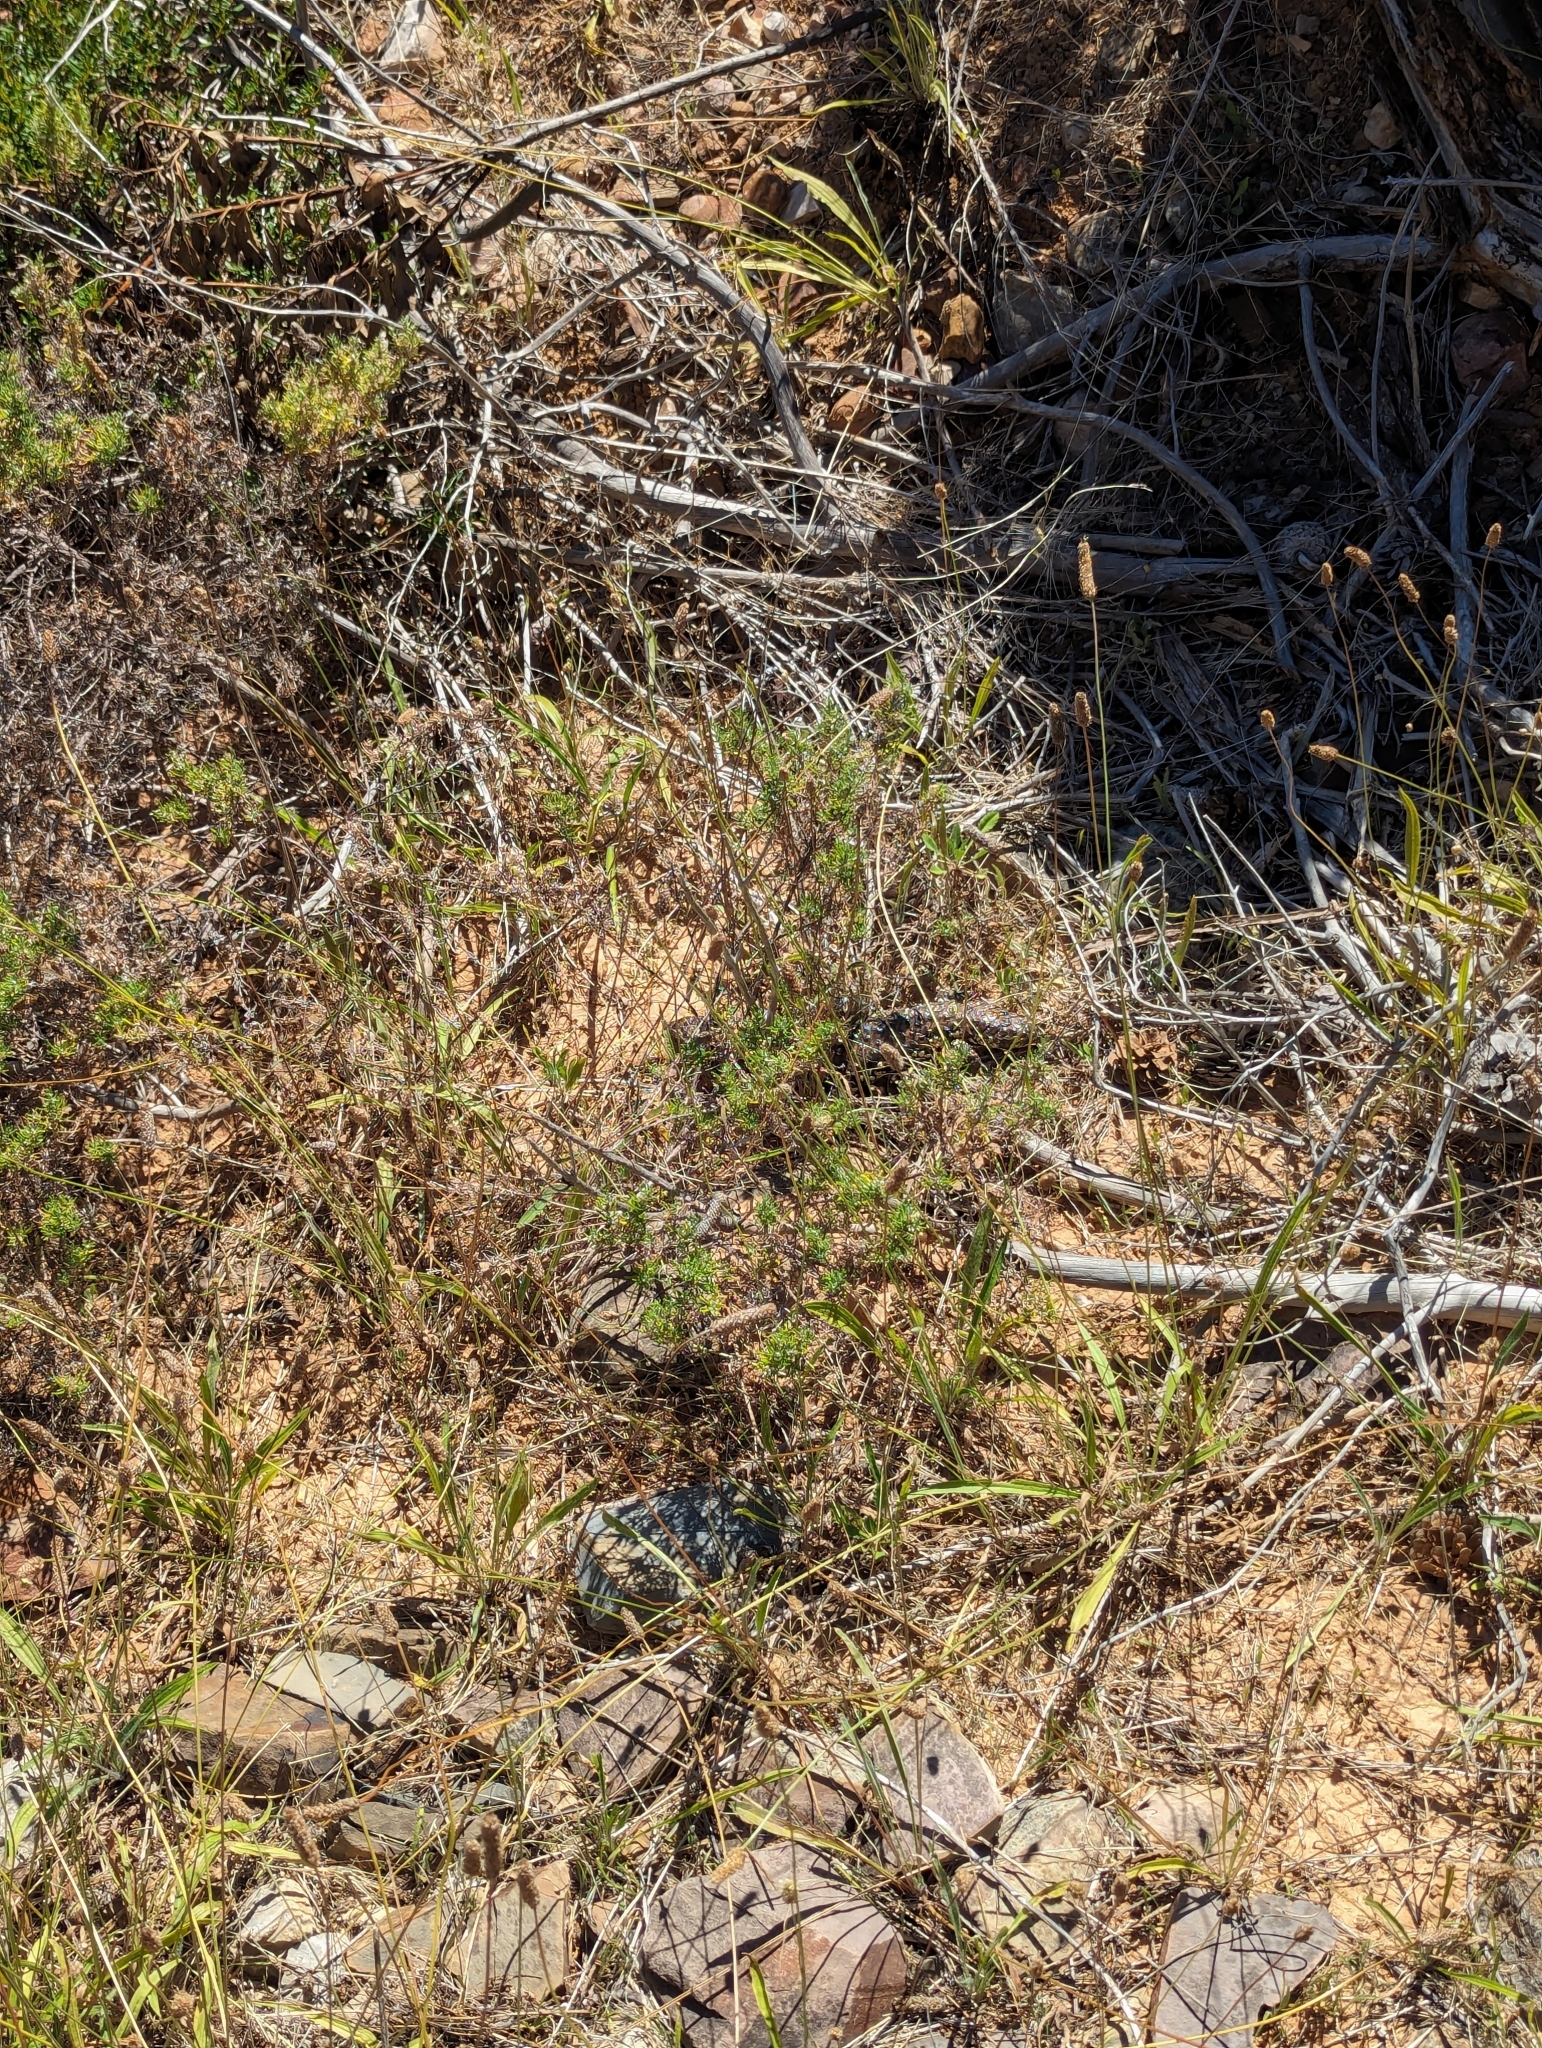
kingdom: Animalia
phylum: Chordata
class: Squamata
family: Scincidae
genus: Tiliqua
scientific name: Tiliqua rugosa
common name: Pinecone lizard
